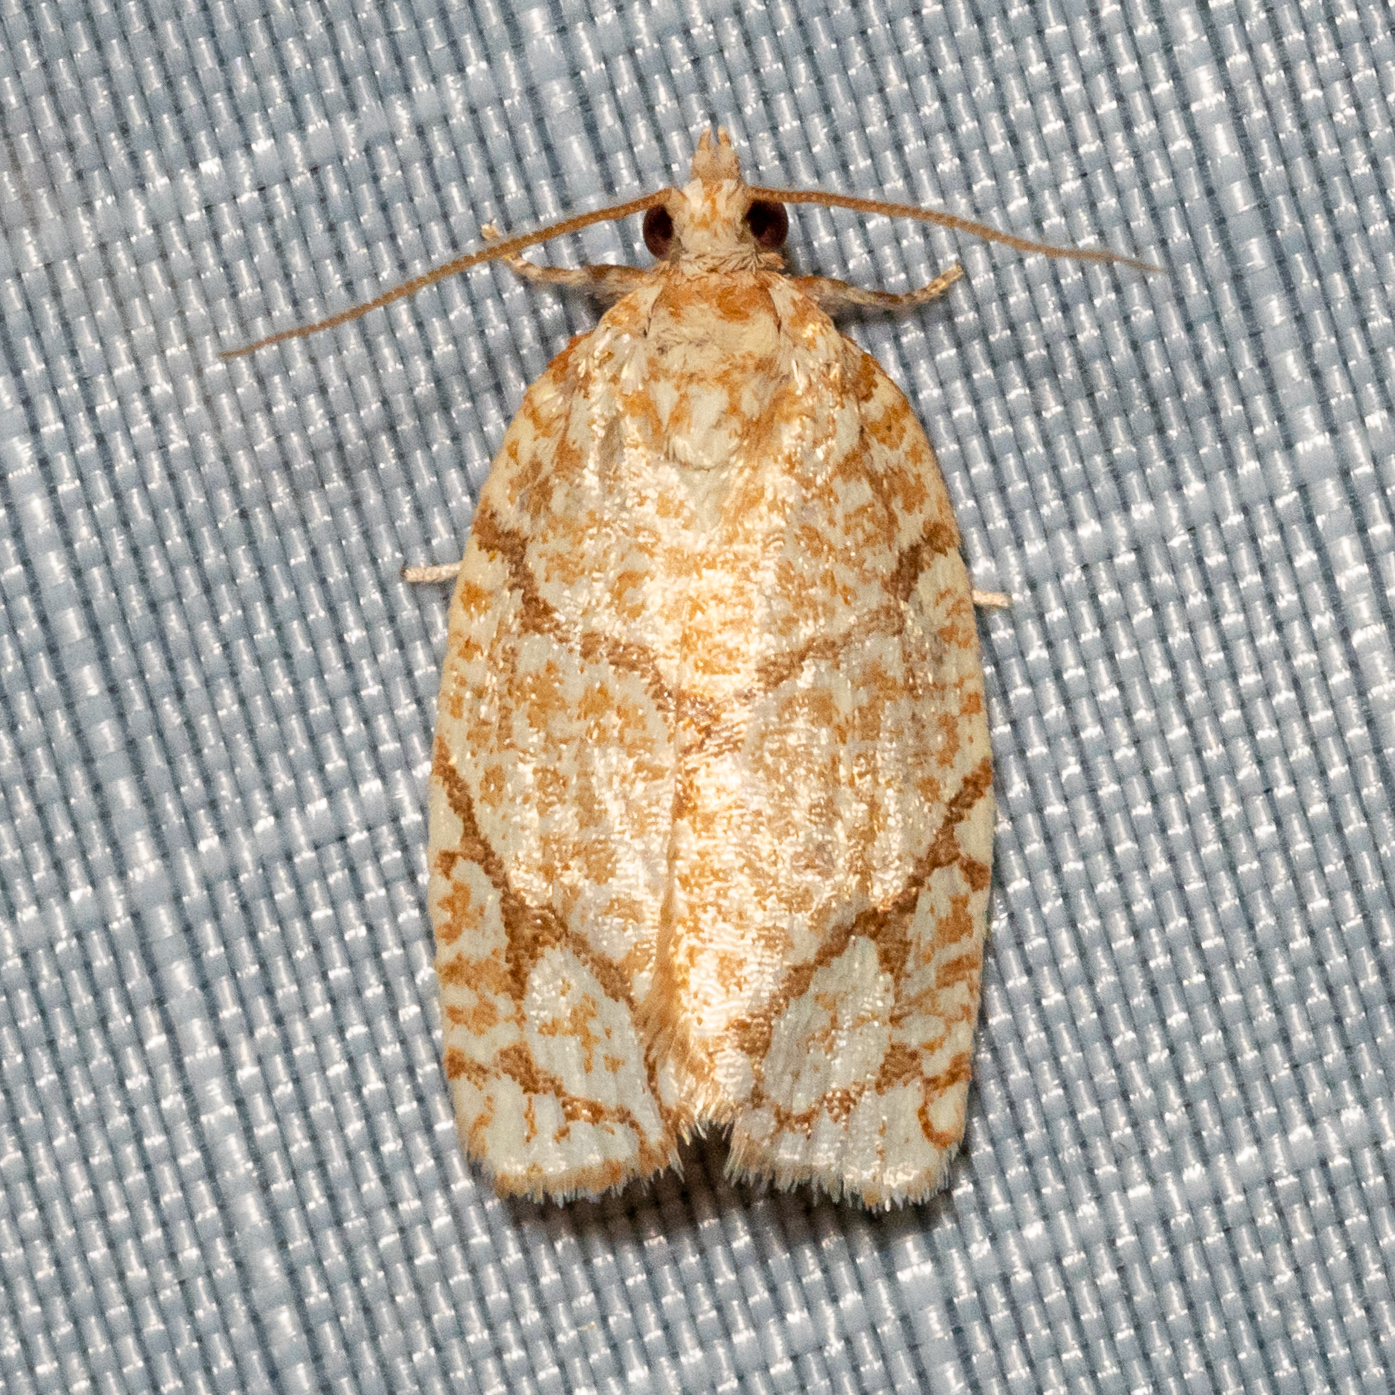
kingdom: Animalia
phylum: Arthropoda
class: Insecta
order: Lepidoptera
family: Tortricidae
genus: Argyrotaenia
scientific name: Argyrotaenia quercifoliana
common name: Yellow-winged oak leafroller moth
